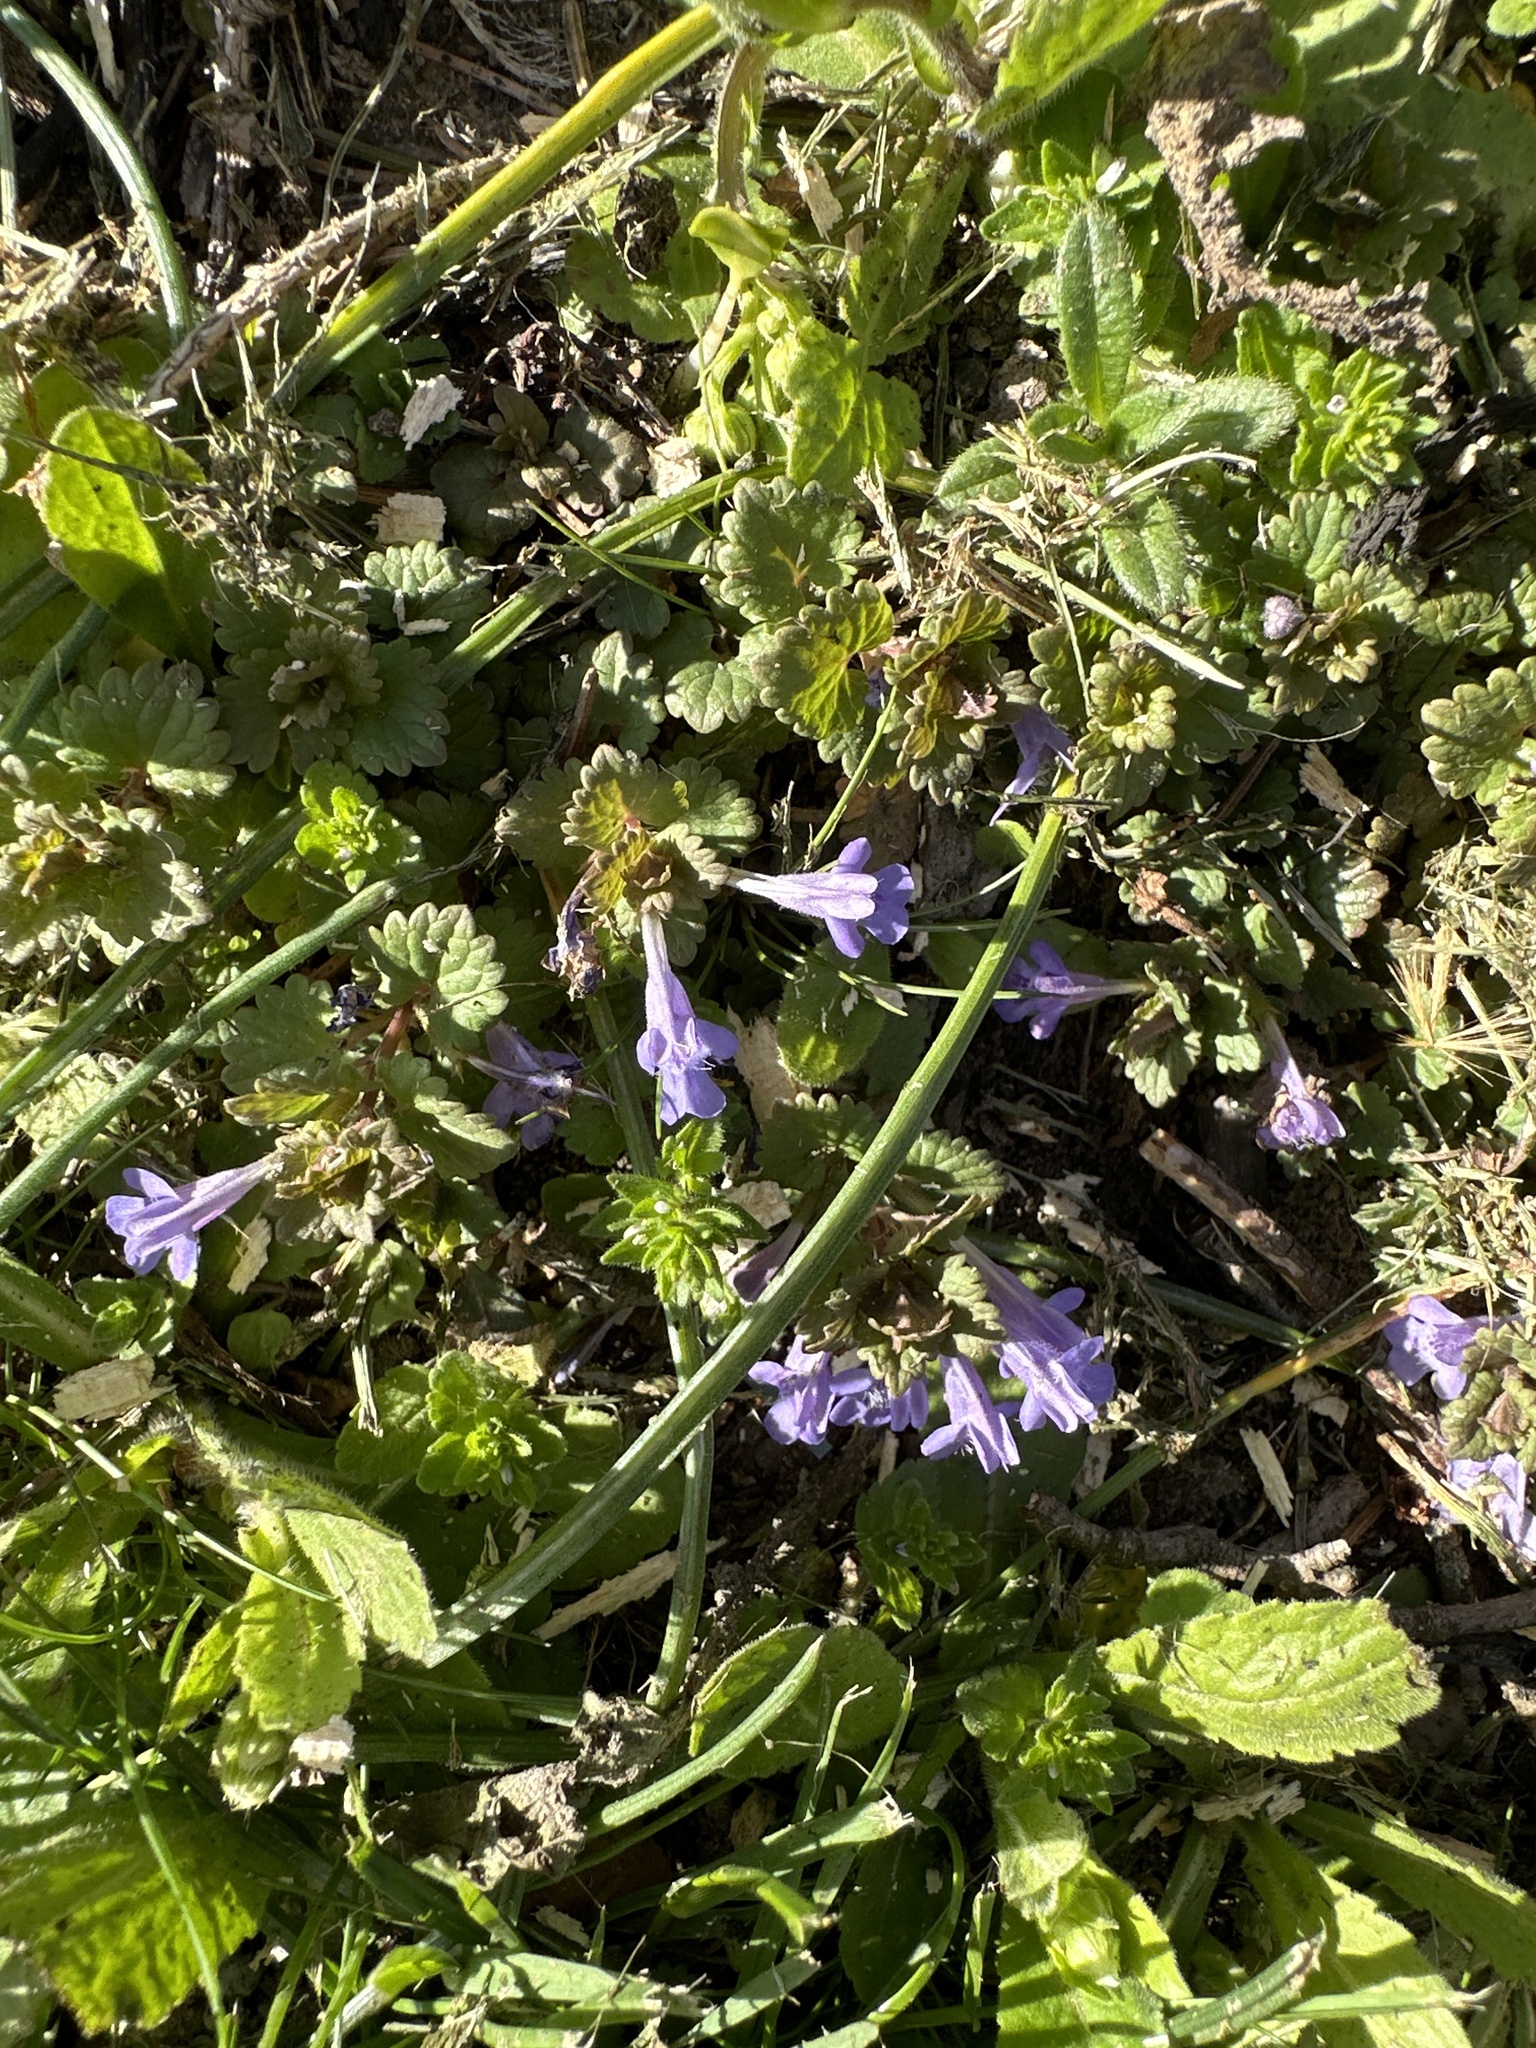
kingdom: Plantae
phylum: Tracheophyta
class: Magnoliopsida
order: Lamiales
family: Lamiaceae
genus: Glechoma
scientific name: Glechoma hederacea
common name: Ground ivy
